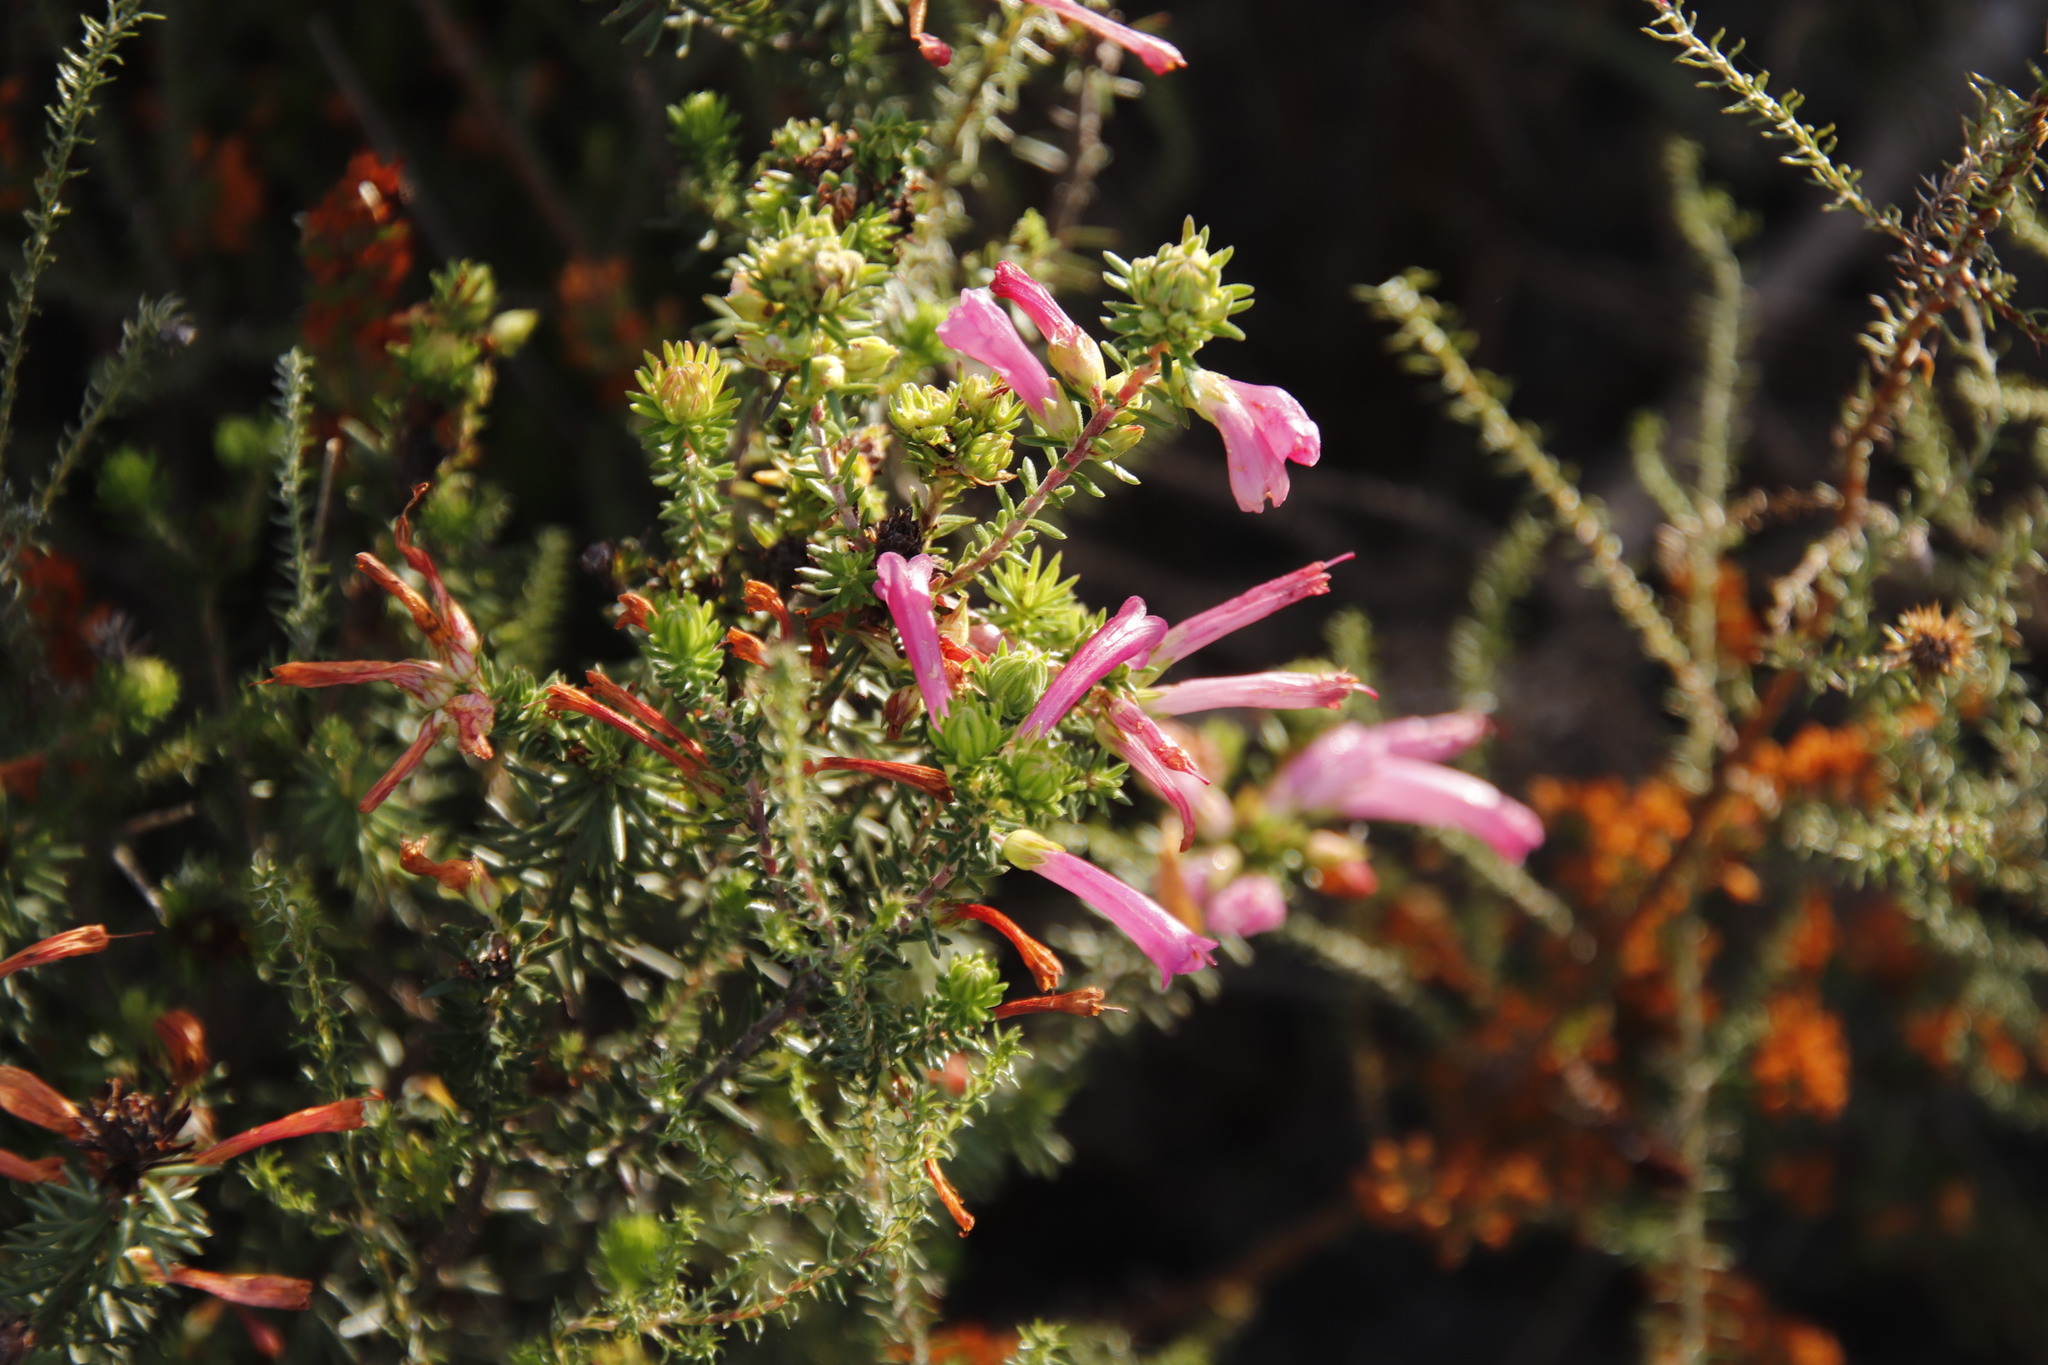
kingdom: Plantae
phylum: Tracheophyta
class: Magnoliopsida
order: Ericales
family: Ericaceae
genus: Erica
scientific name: Erica abietina
